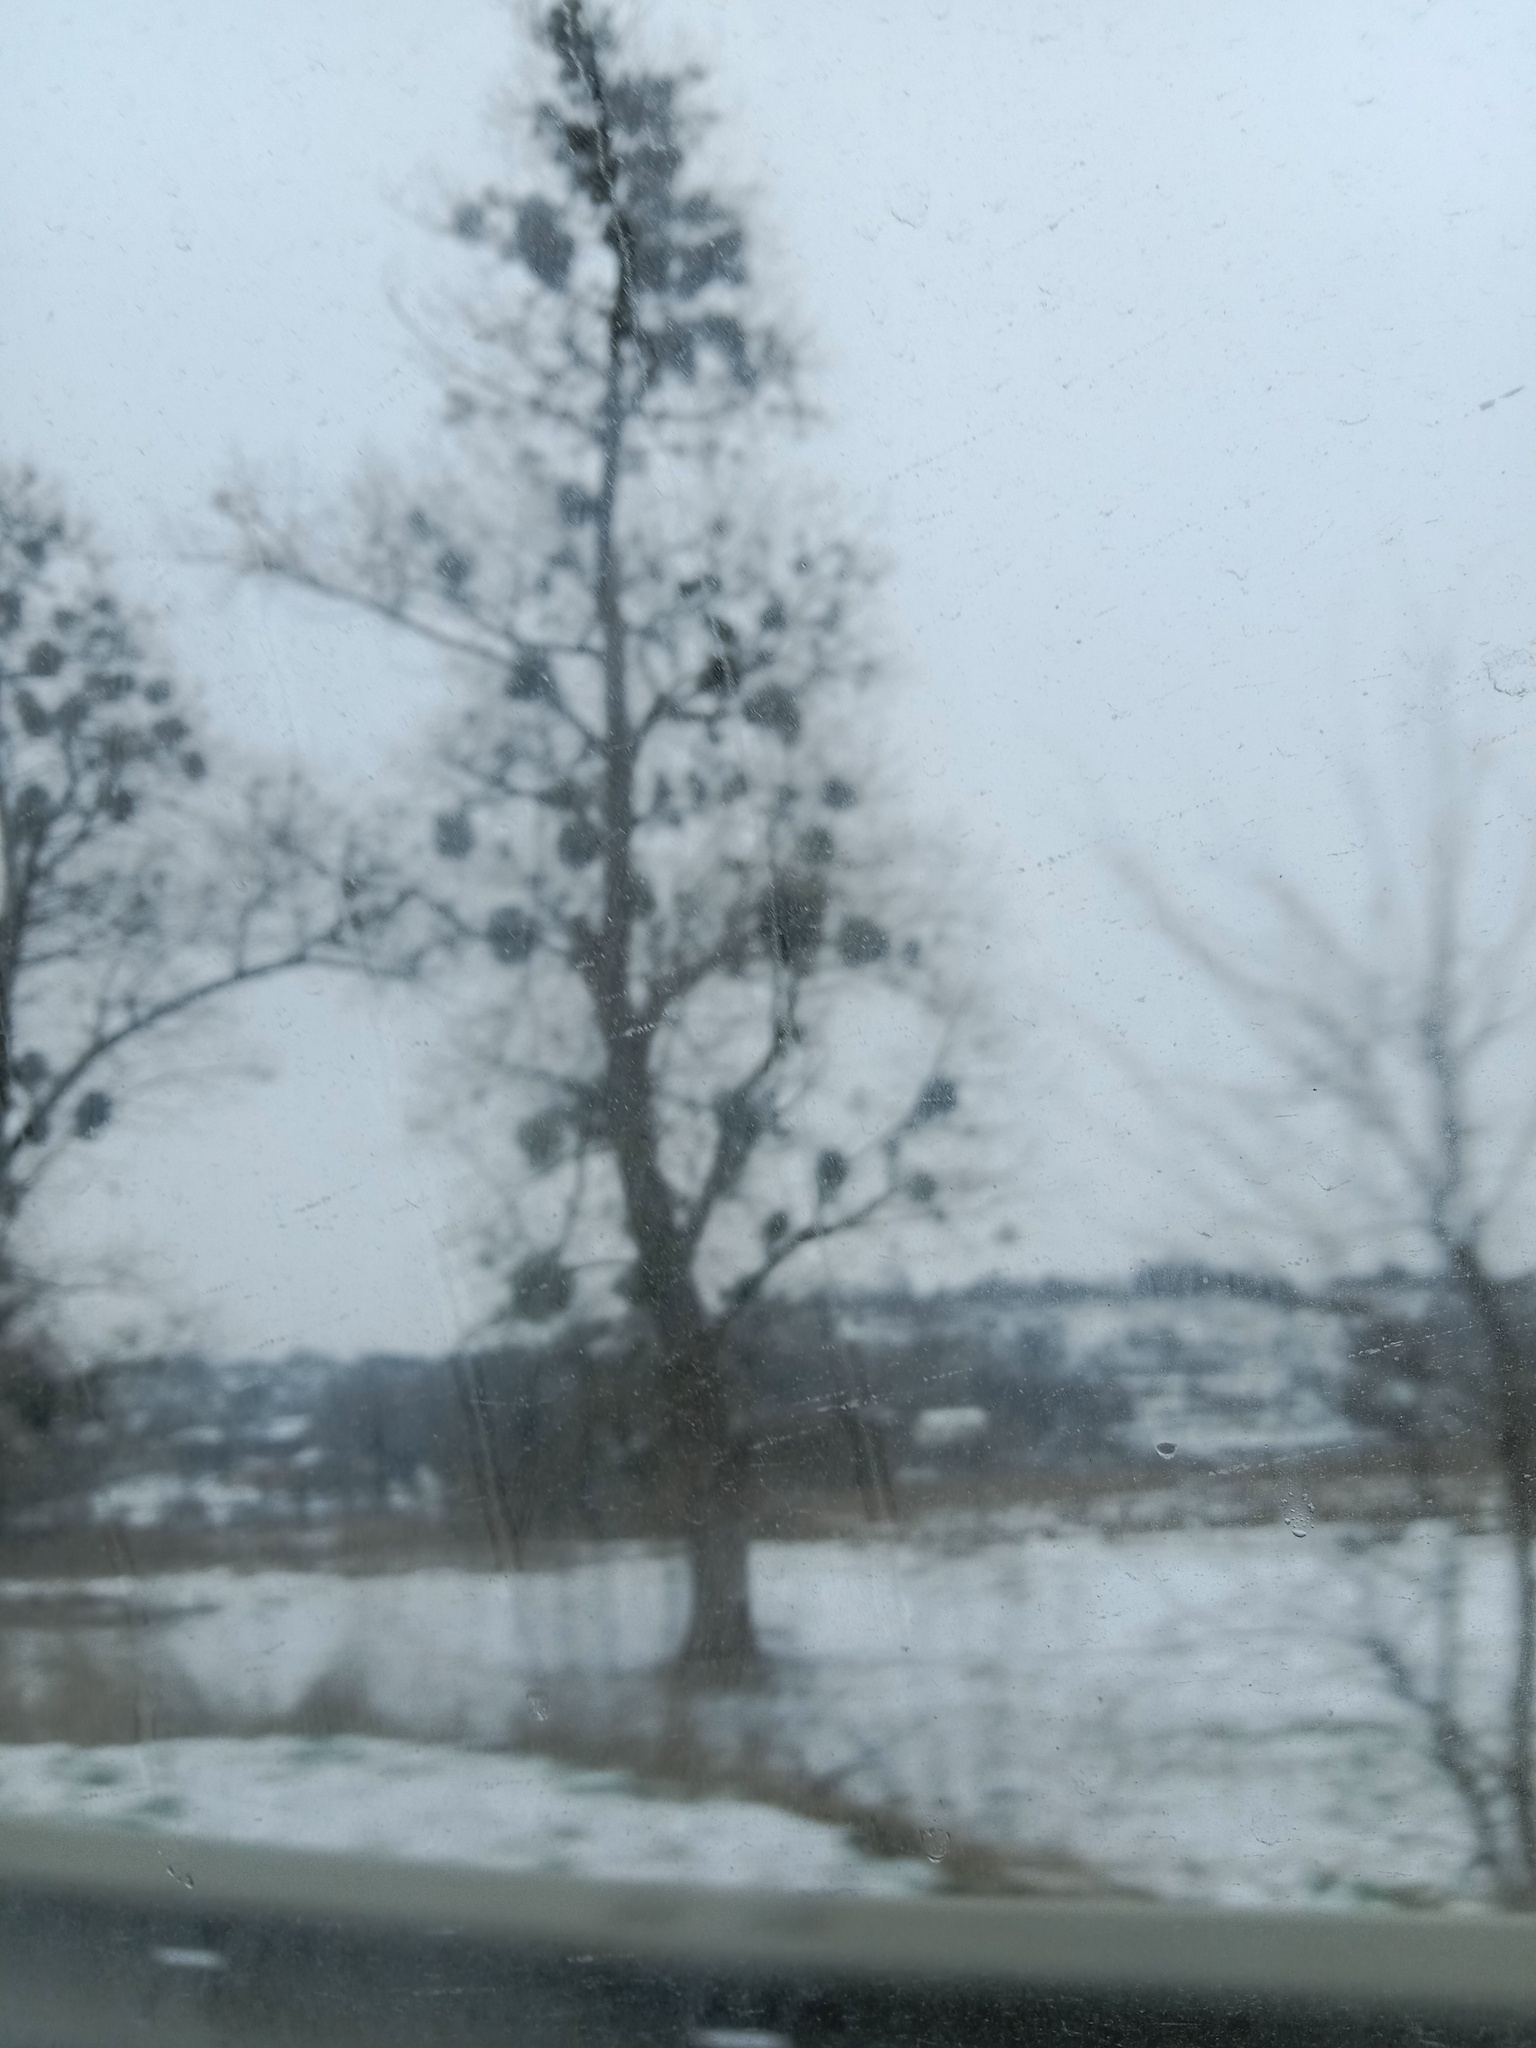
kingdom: Plantae
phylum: Tracheophyta
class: Magnoliopsida
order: Santalales
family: Viscaceae
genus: Viscum
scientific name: Viscum album
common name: Mistletoe
